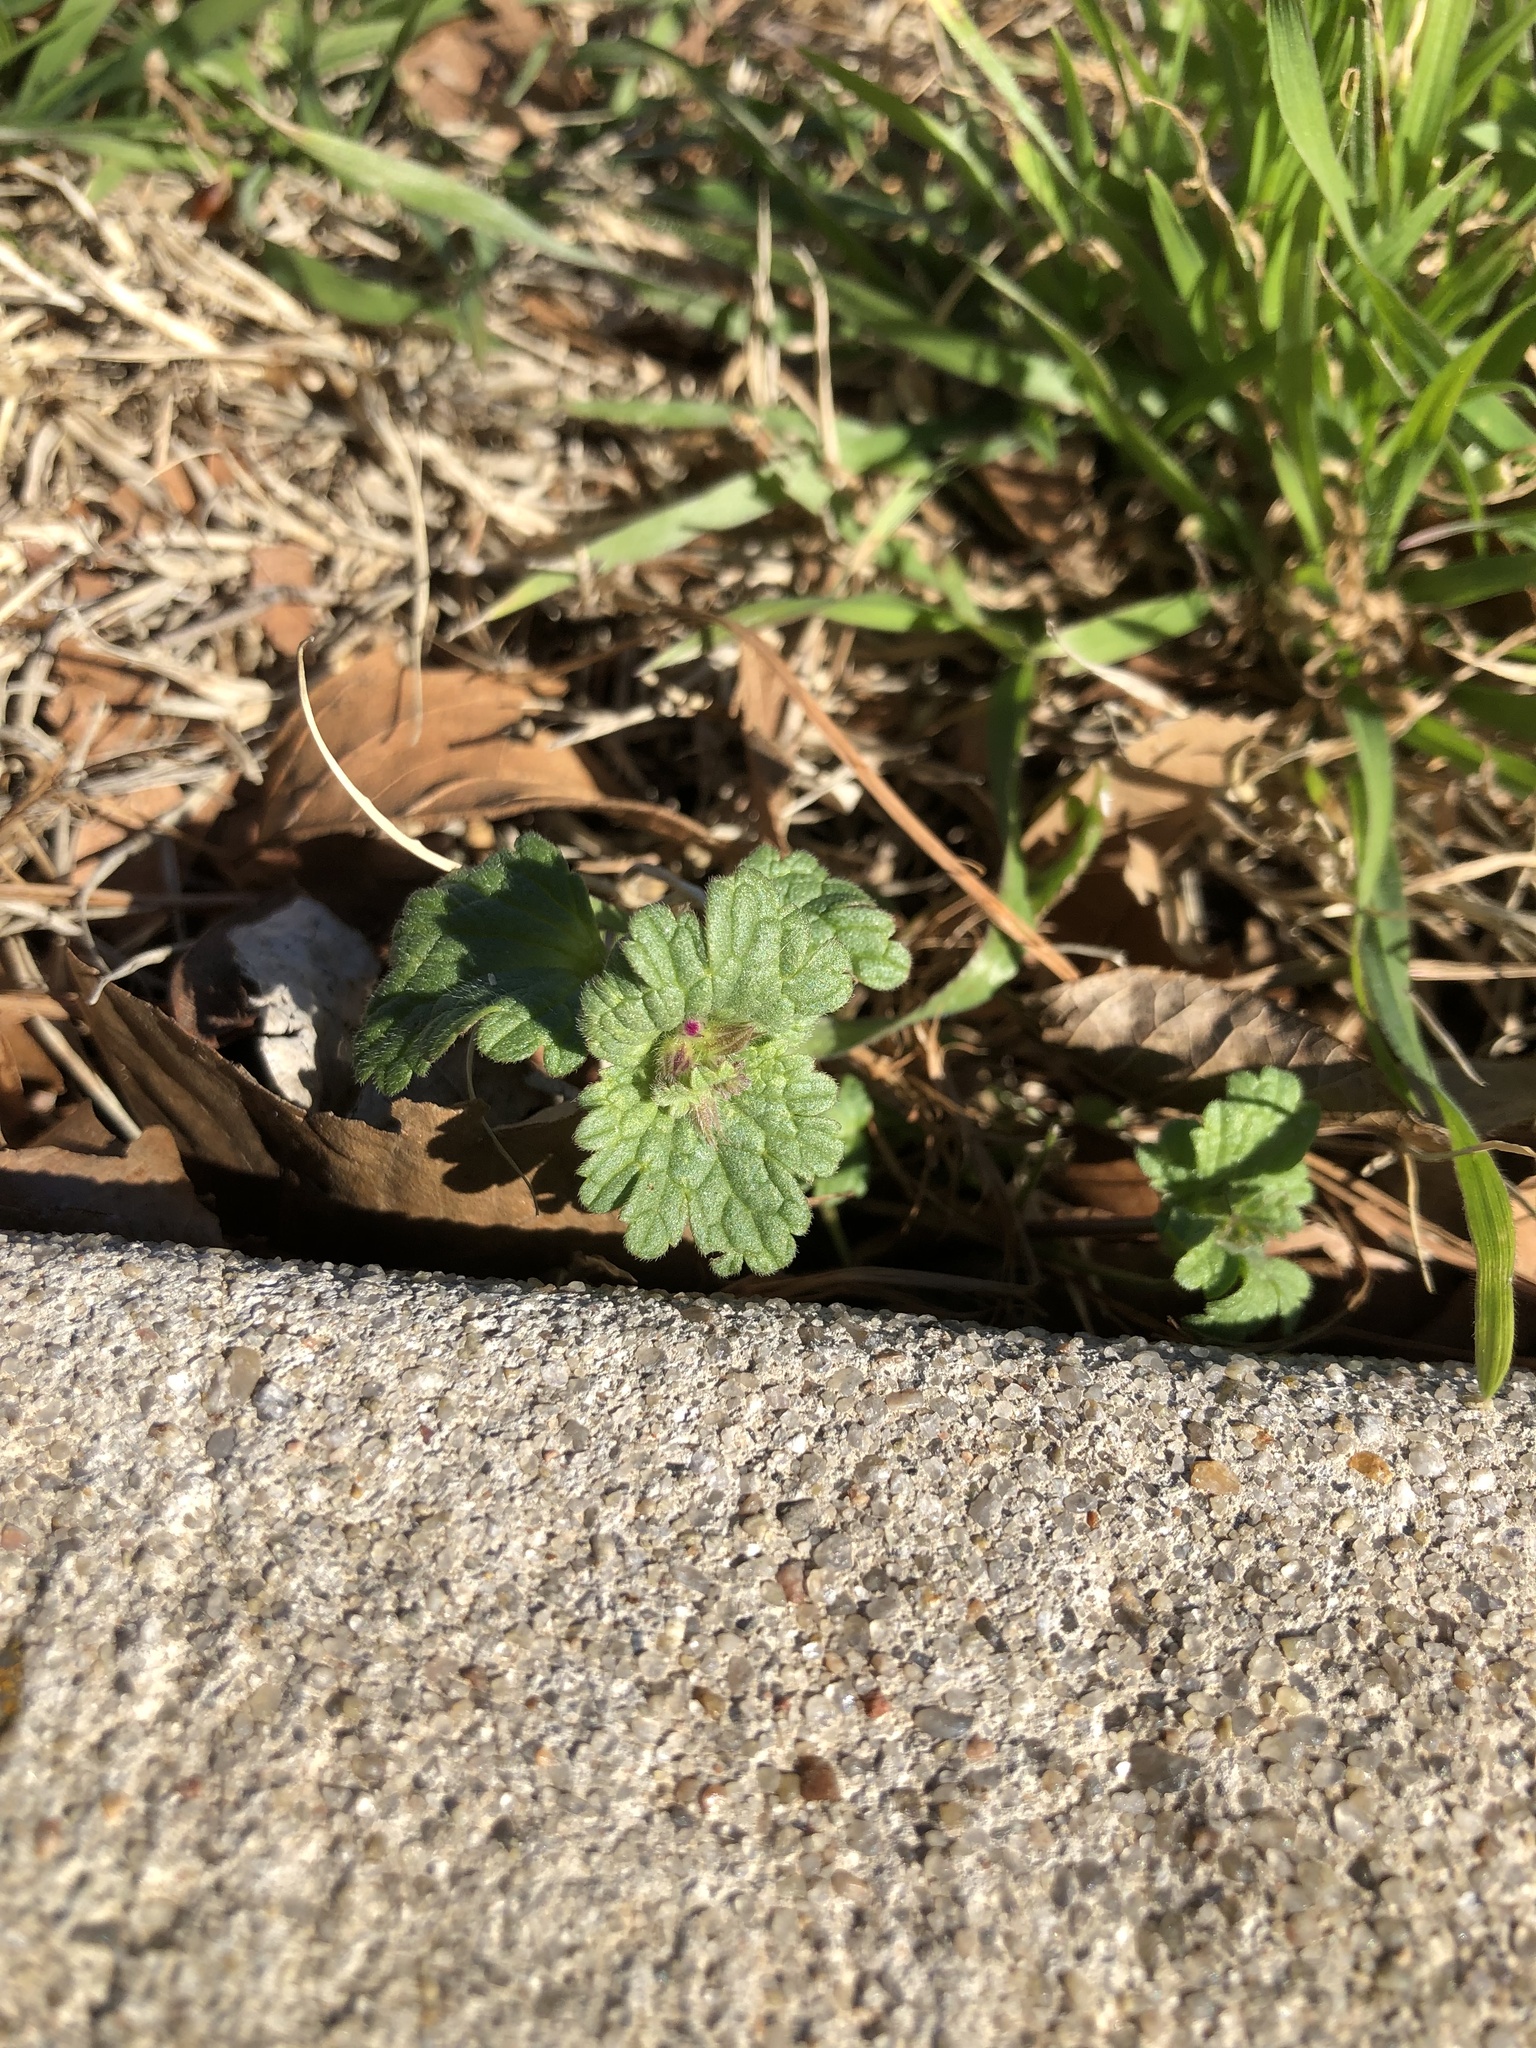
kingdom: Plantae
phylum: Tracheophyta
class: Magnoliopsida
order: Lamiales
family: Lamiaceae
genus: Lamium
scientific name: Lamium amplexicaule
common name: Henbit dead-nettle
